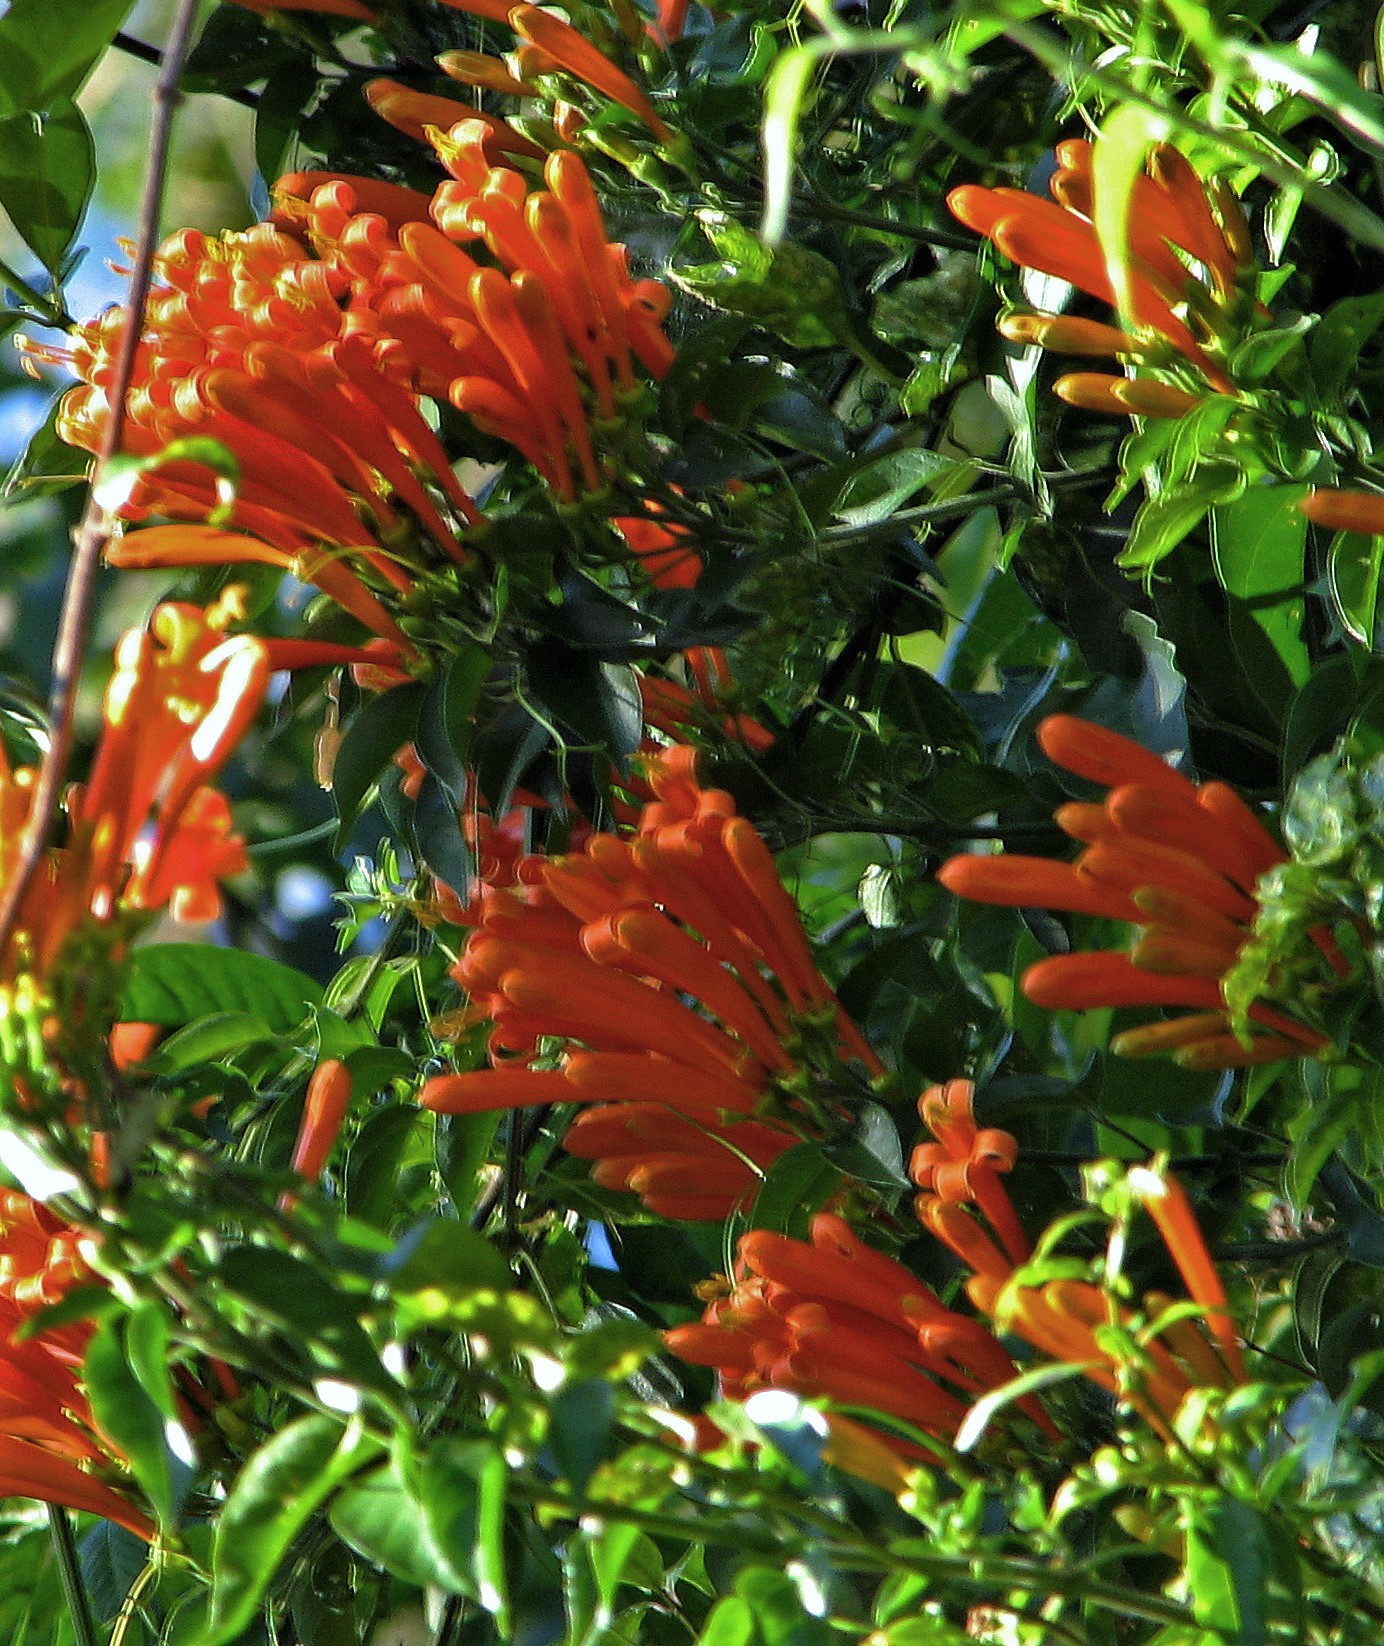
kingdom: Plantae
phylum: Tracheophyta
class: Magnoliopsida
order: Lamiales
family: Bignoniaceae
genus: Pyrostegia
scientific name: Pyrostegia venusta
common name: Flamevine
